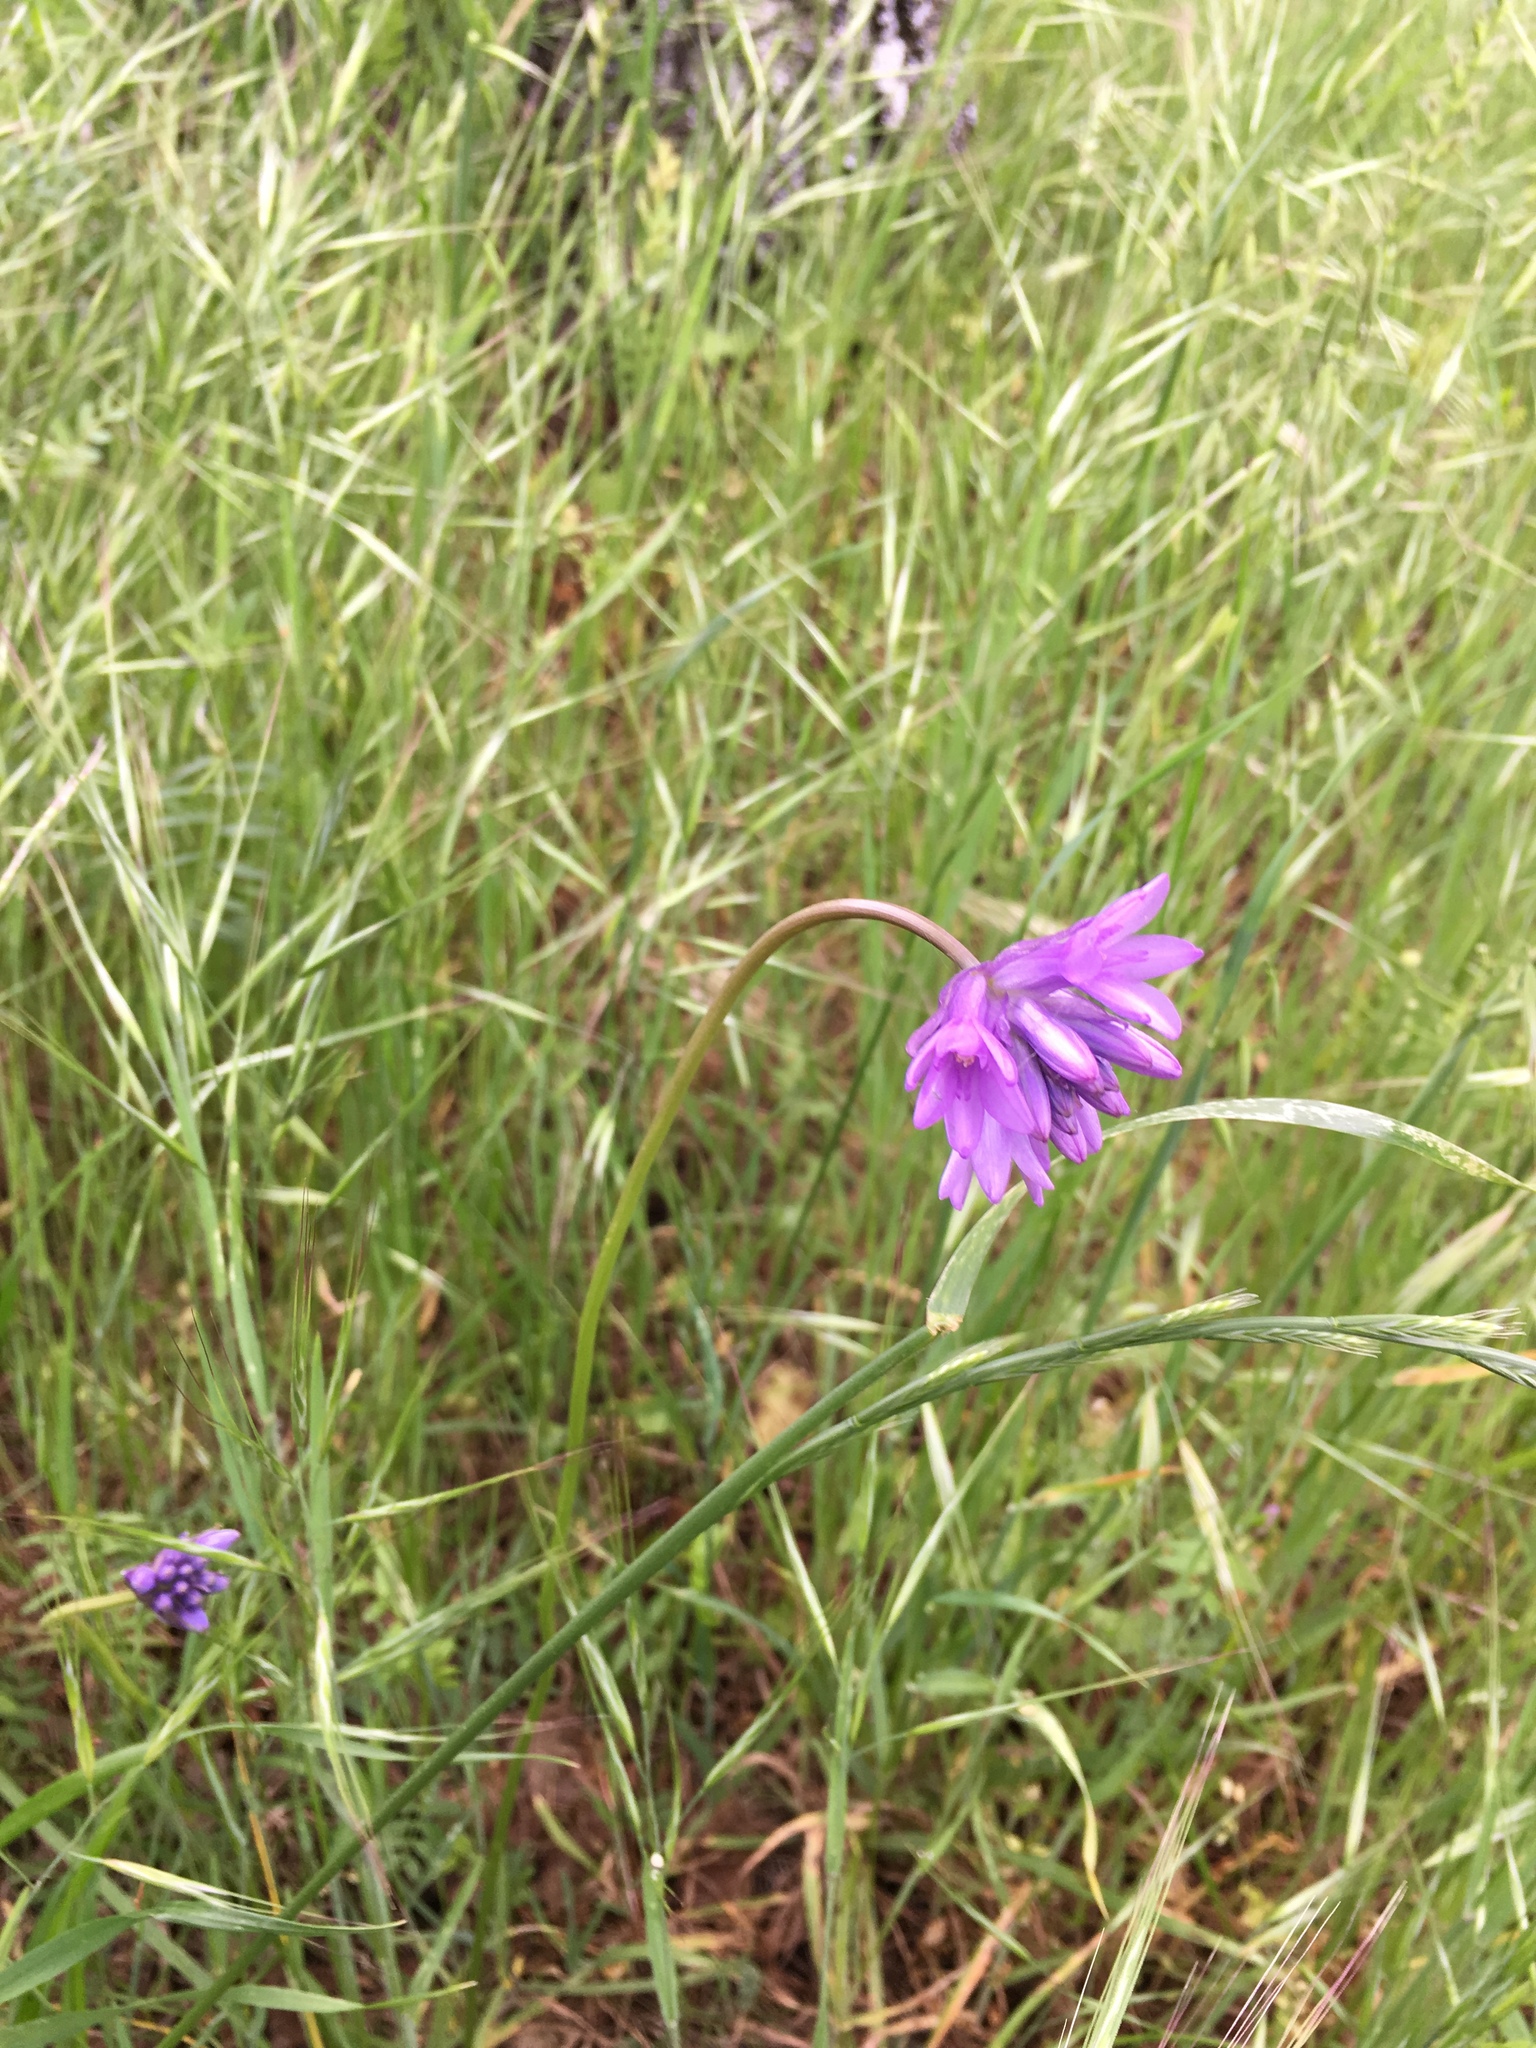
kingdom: Plantae
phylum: Tracheophyta
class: Liliopsida
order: Asparagales
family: Asparagaceae
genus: Dichelostemma
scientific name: Dichelostemma congestum
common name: Fork-tooth ookow
